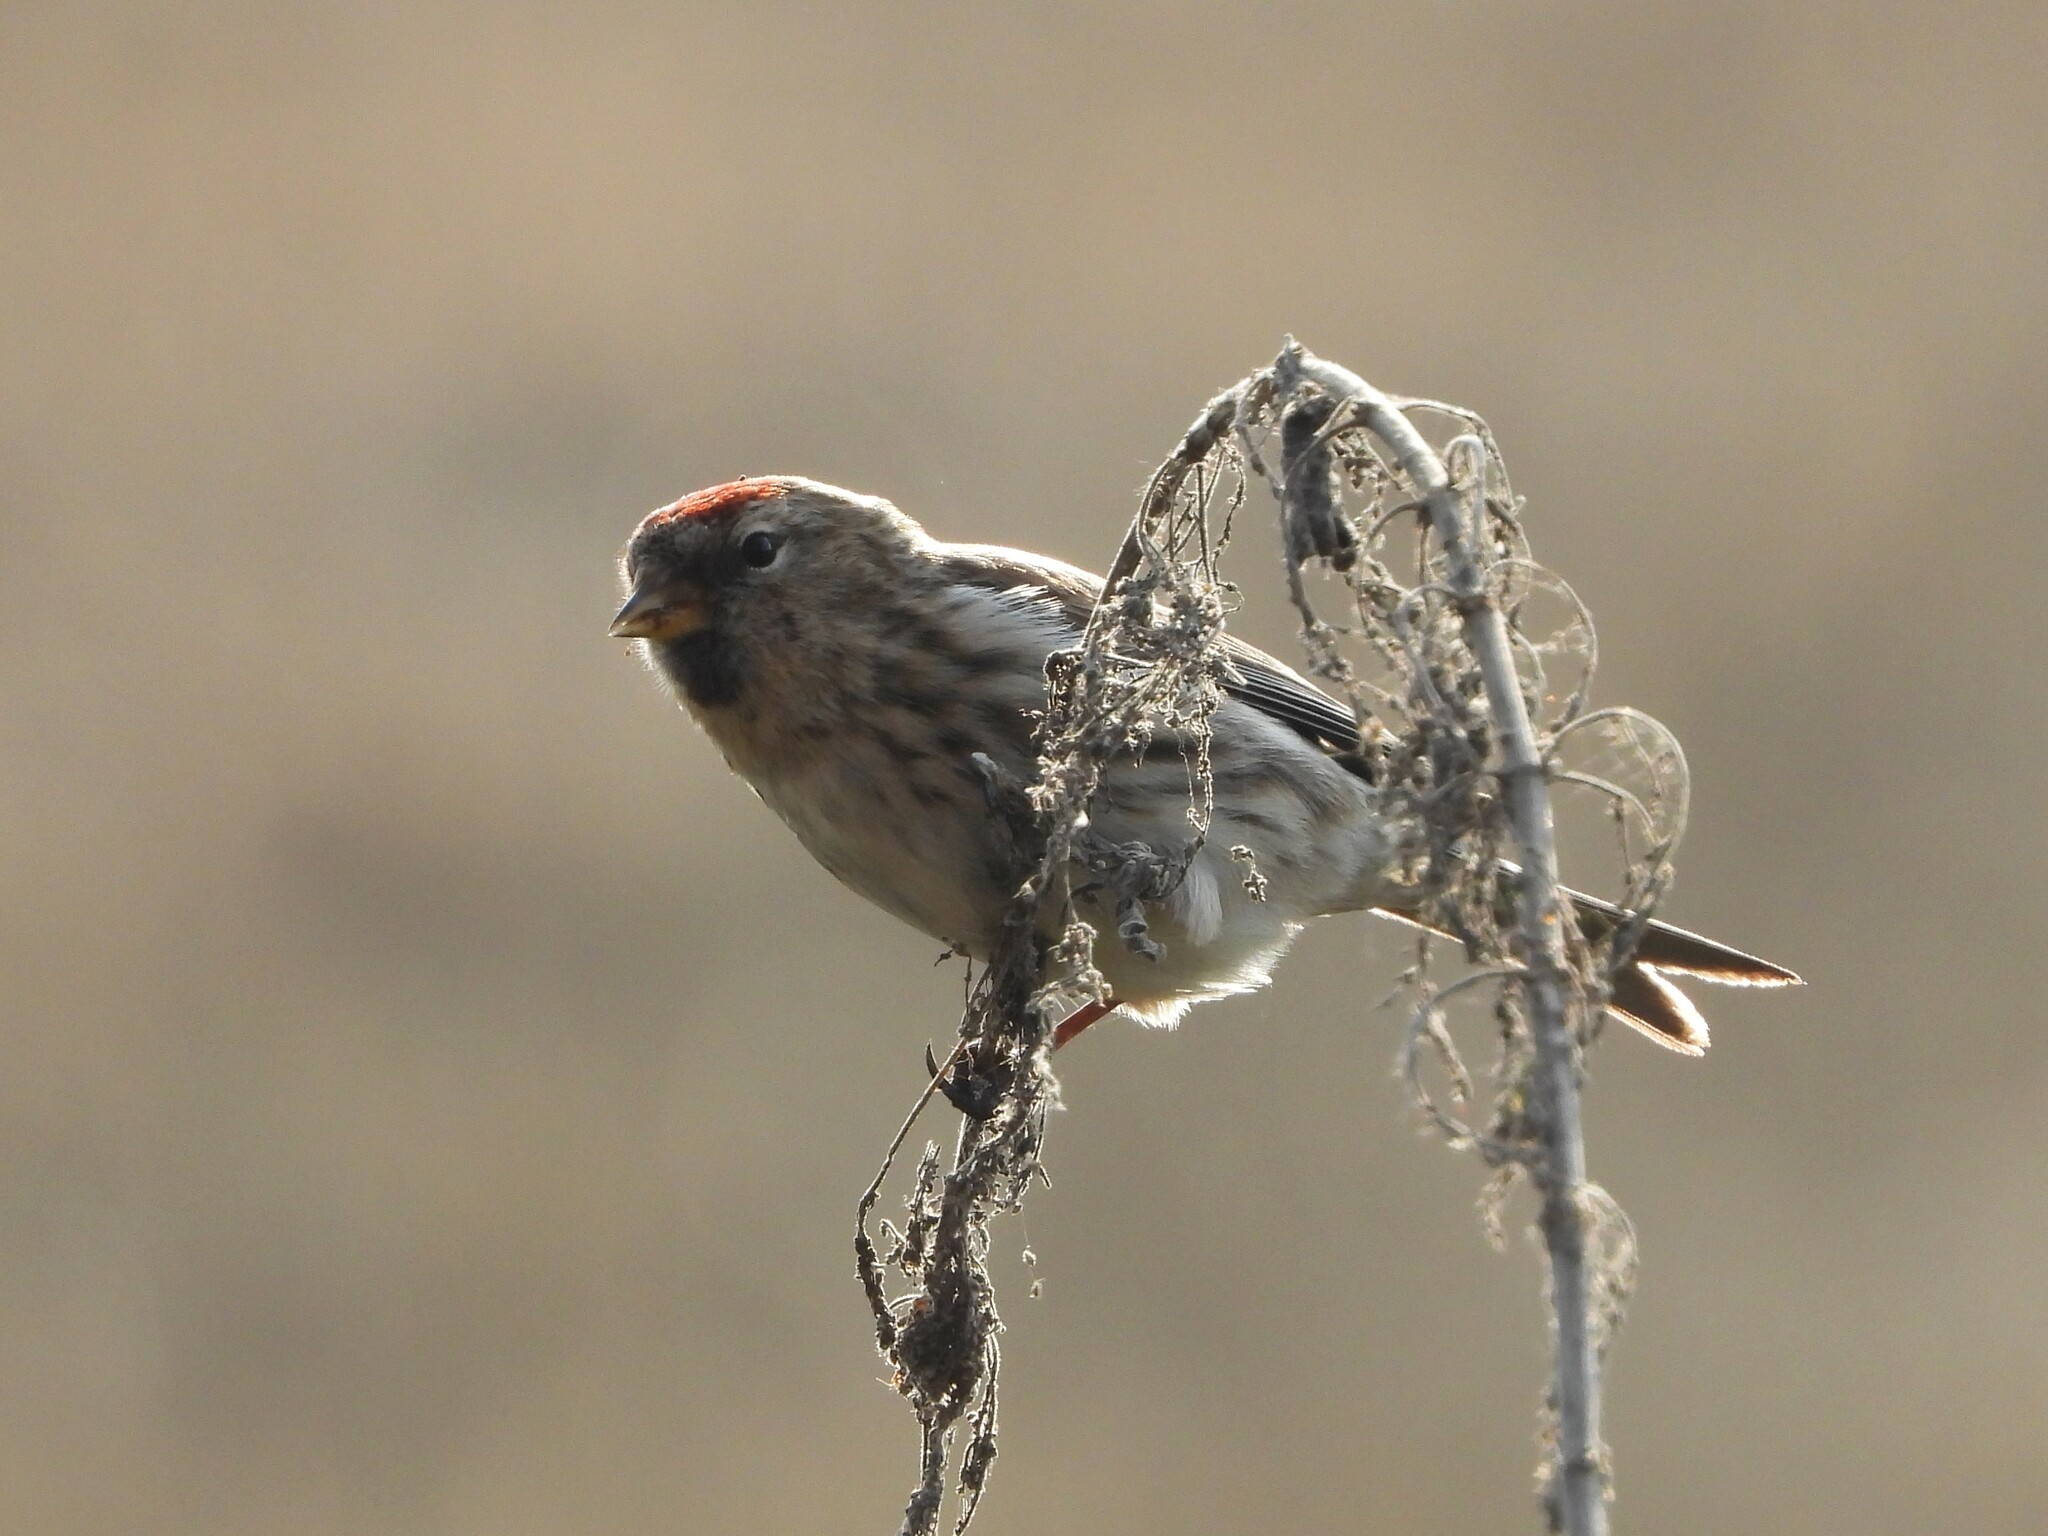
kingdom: Animalia
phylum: Chordata
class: Aves
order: Passeriformes
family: Fringillidae
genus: Acanthis
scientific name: Acanthis flammea
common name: Common redpoll
